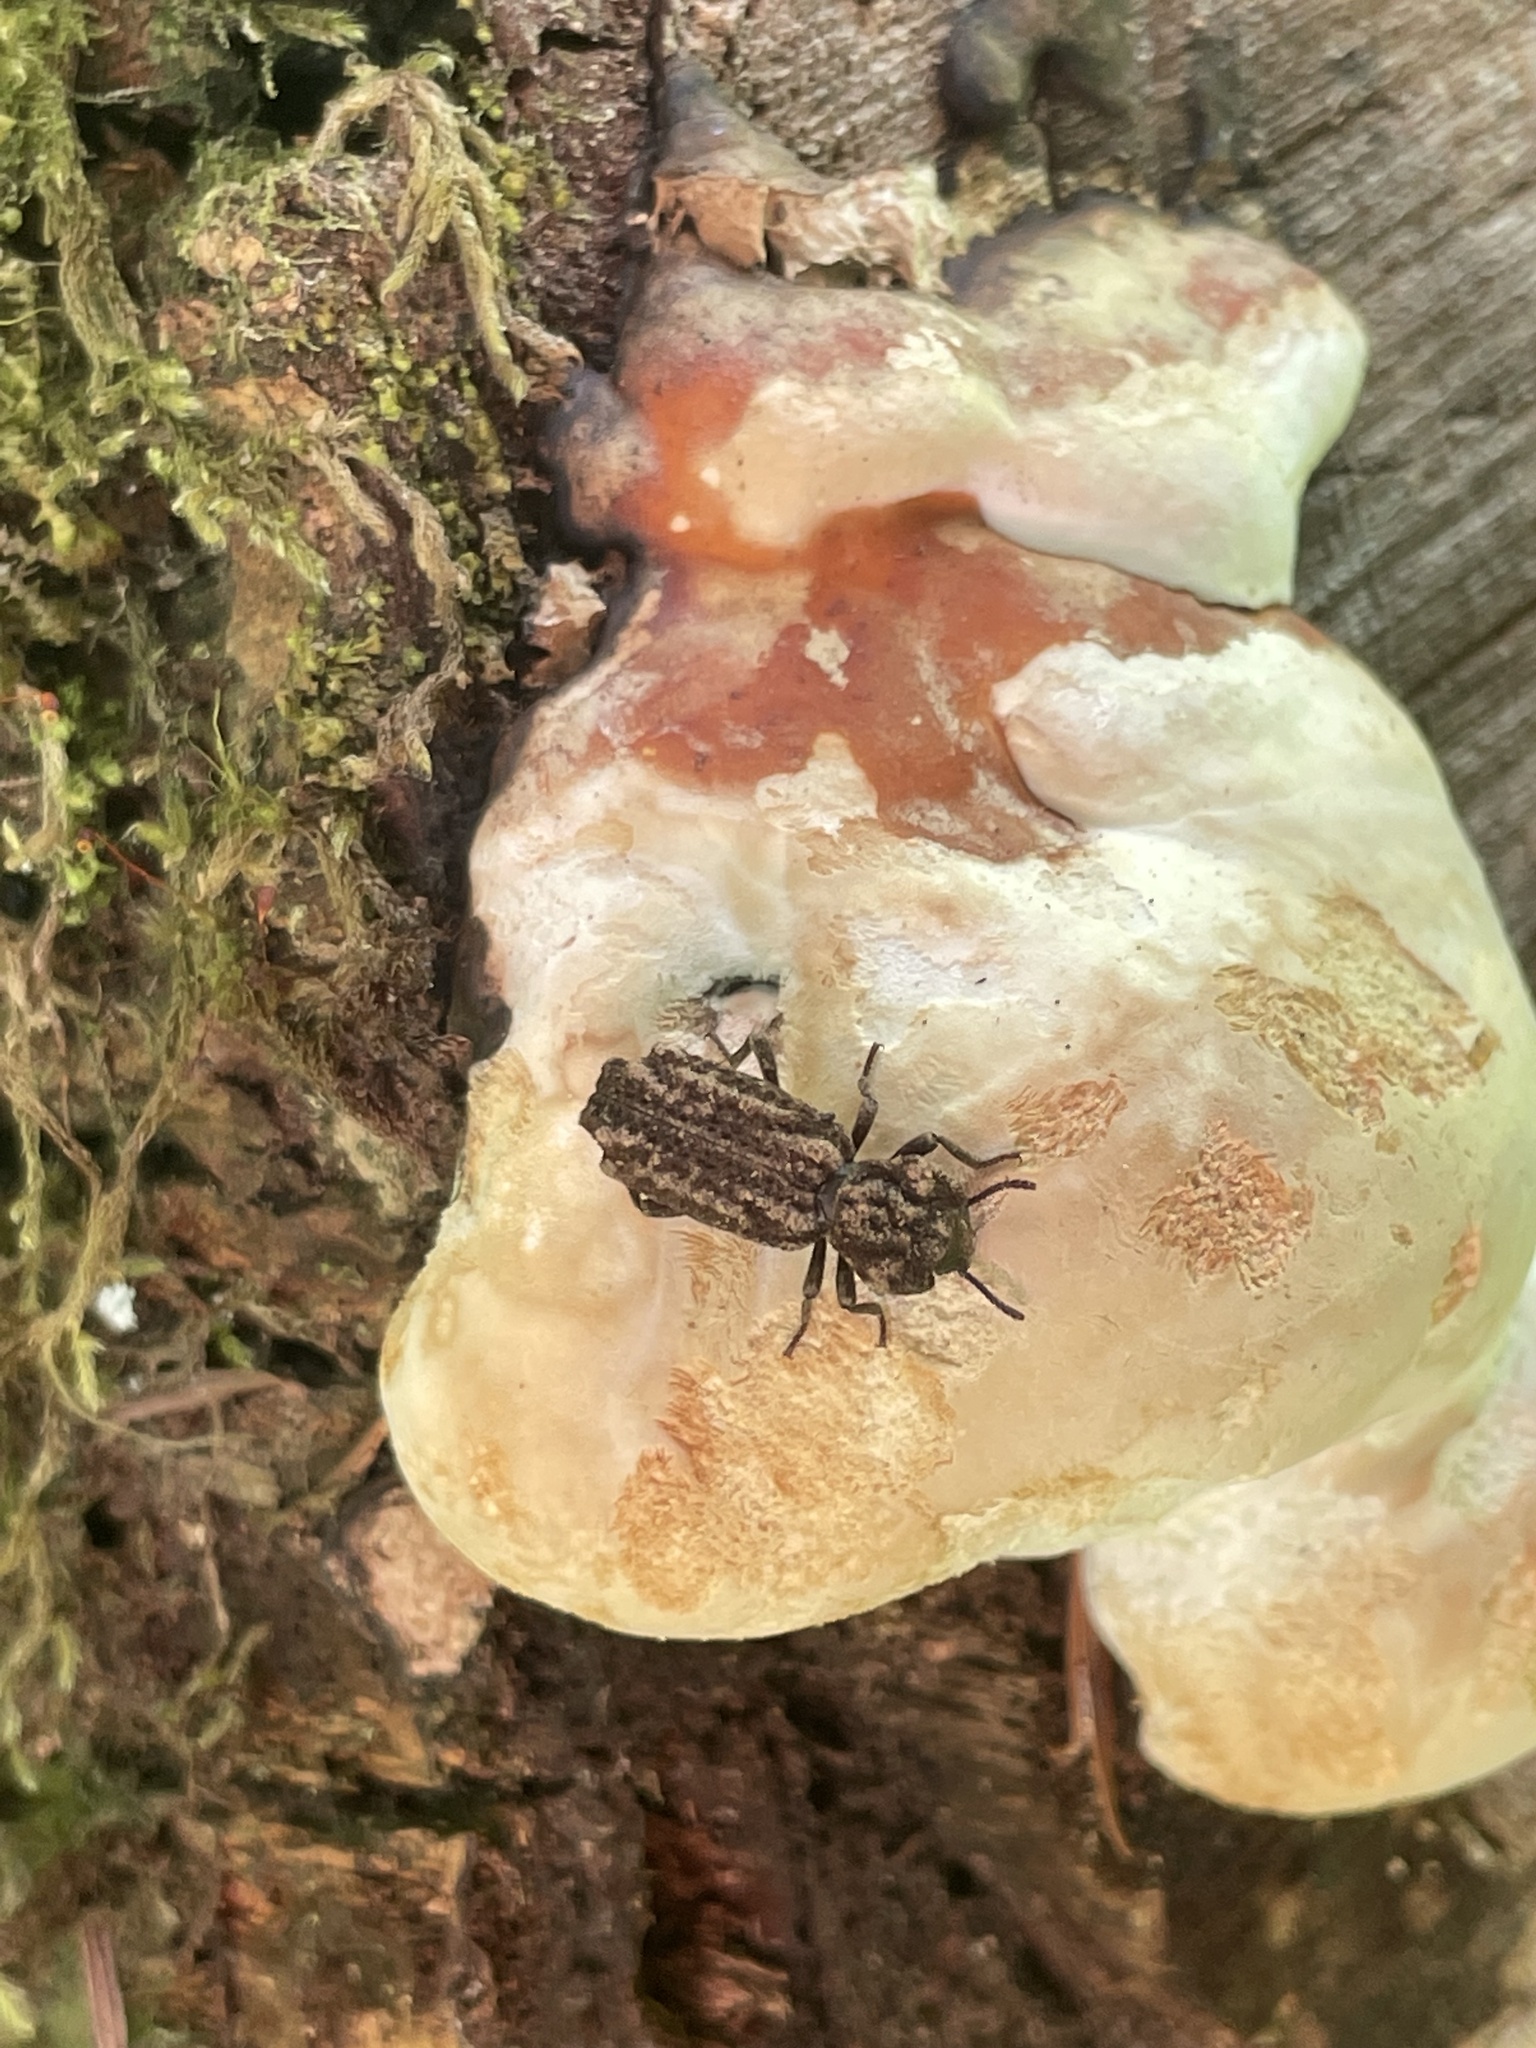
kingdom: Animalia
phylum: Arthropoda
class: Insecta
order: Coleoptera
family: Zopheridae
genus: Phellopsis
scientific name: Phellopsis porcata
